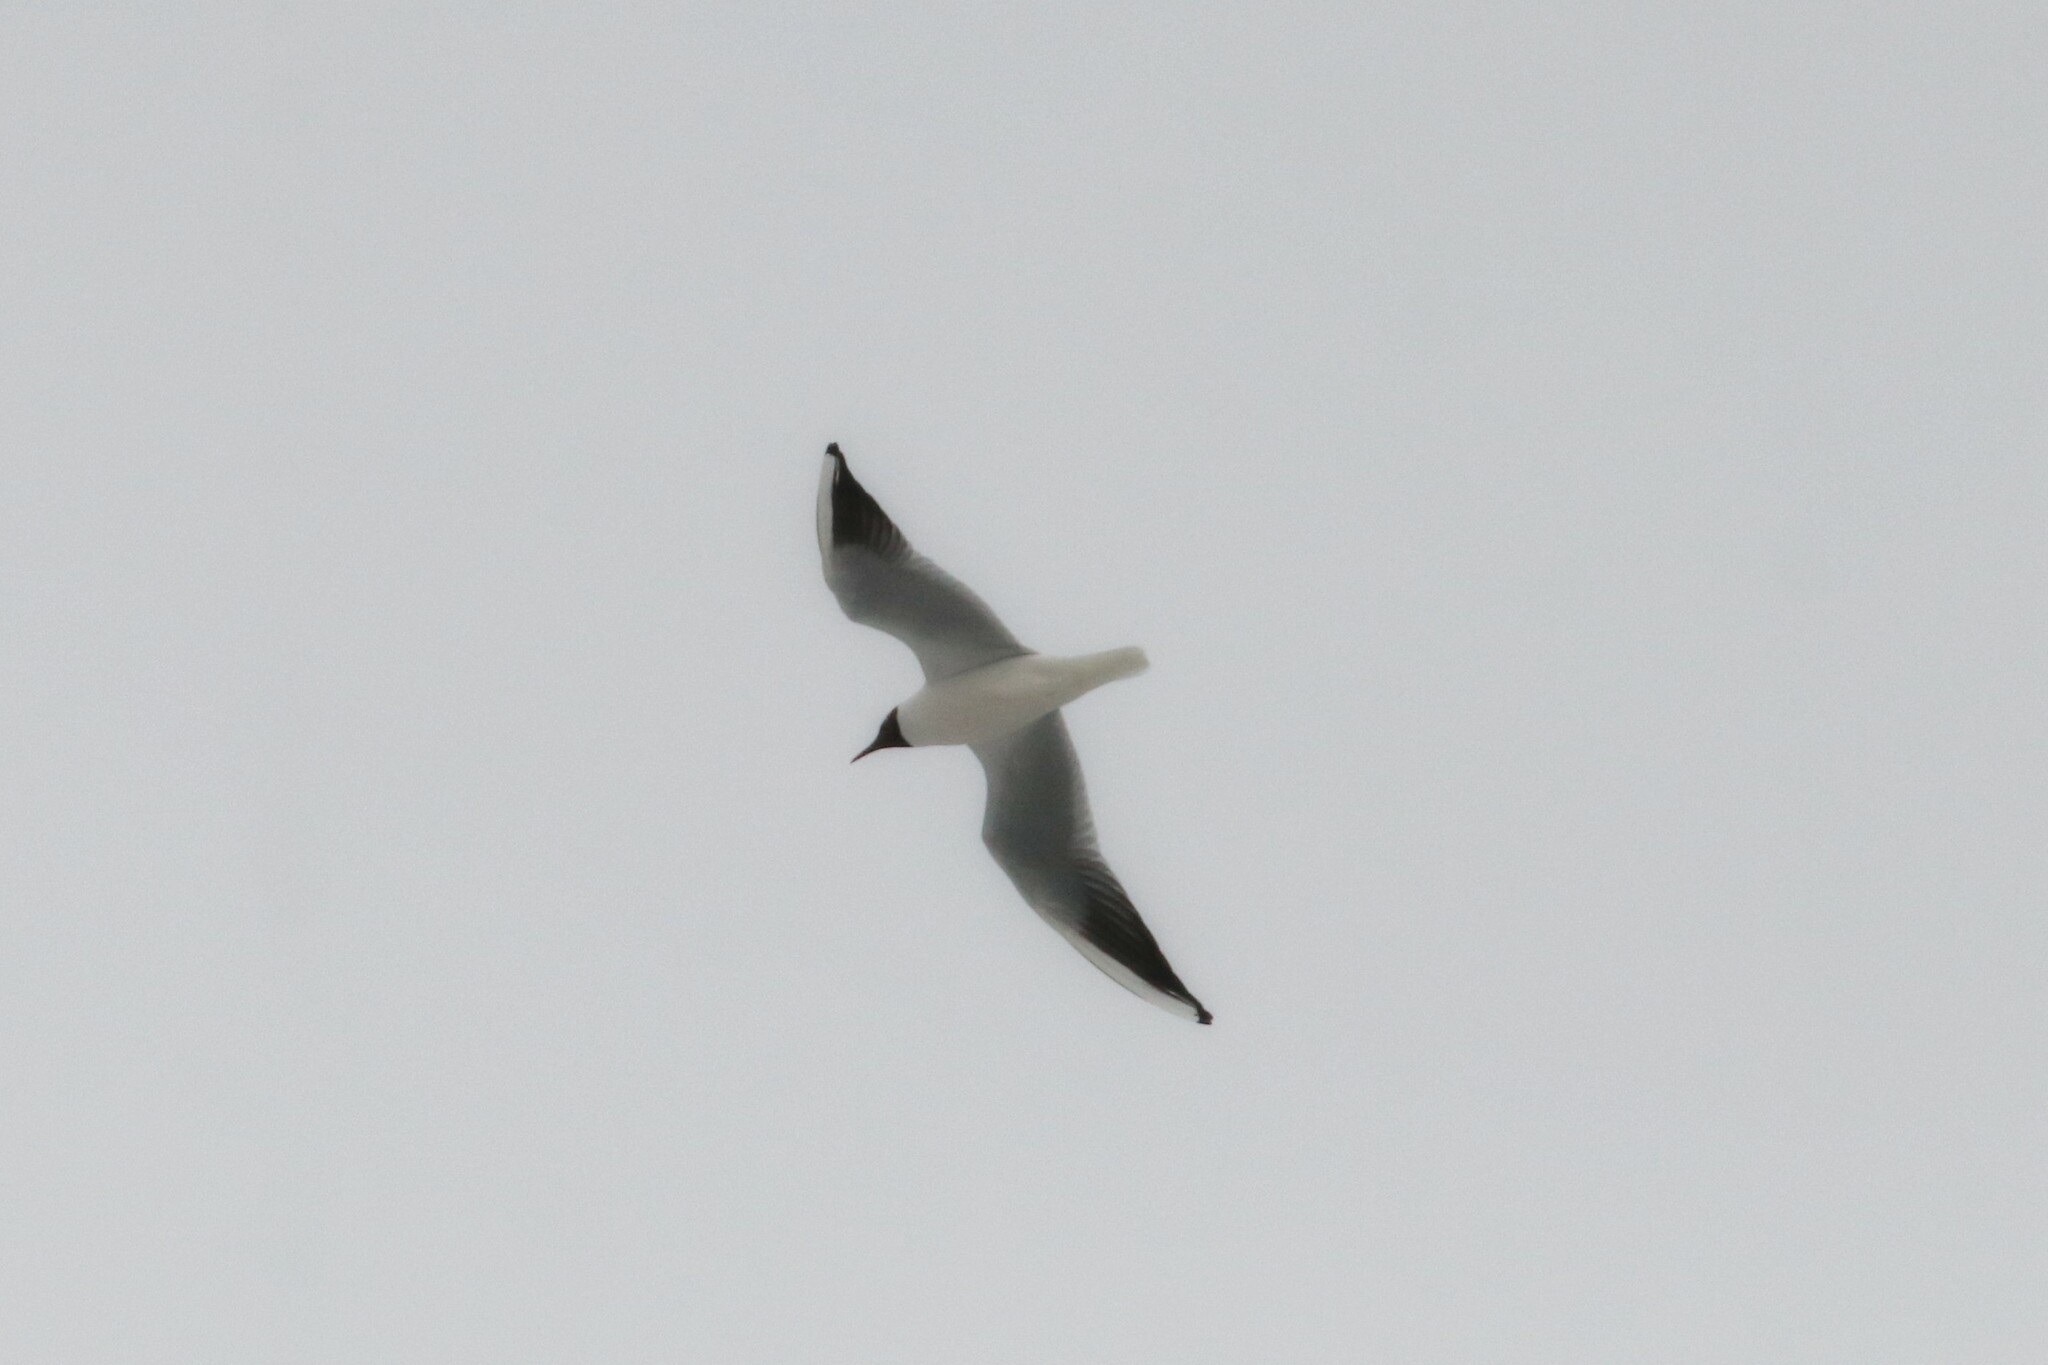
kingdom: Animalia
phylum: Chordata
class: Aves
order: Charadriiformes
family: Laridae
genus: Chroicocephalus
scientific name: Chroicocephalus ridibundus
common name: Black-headed gull
